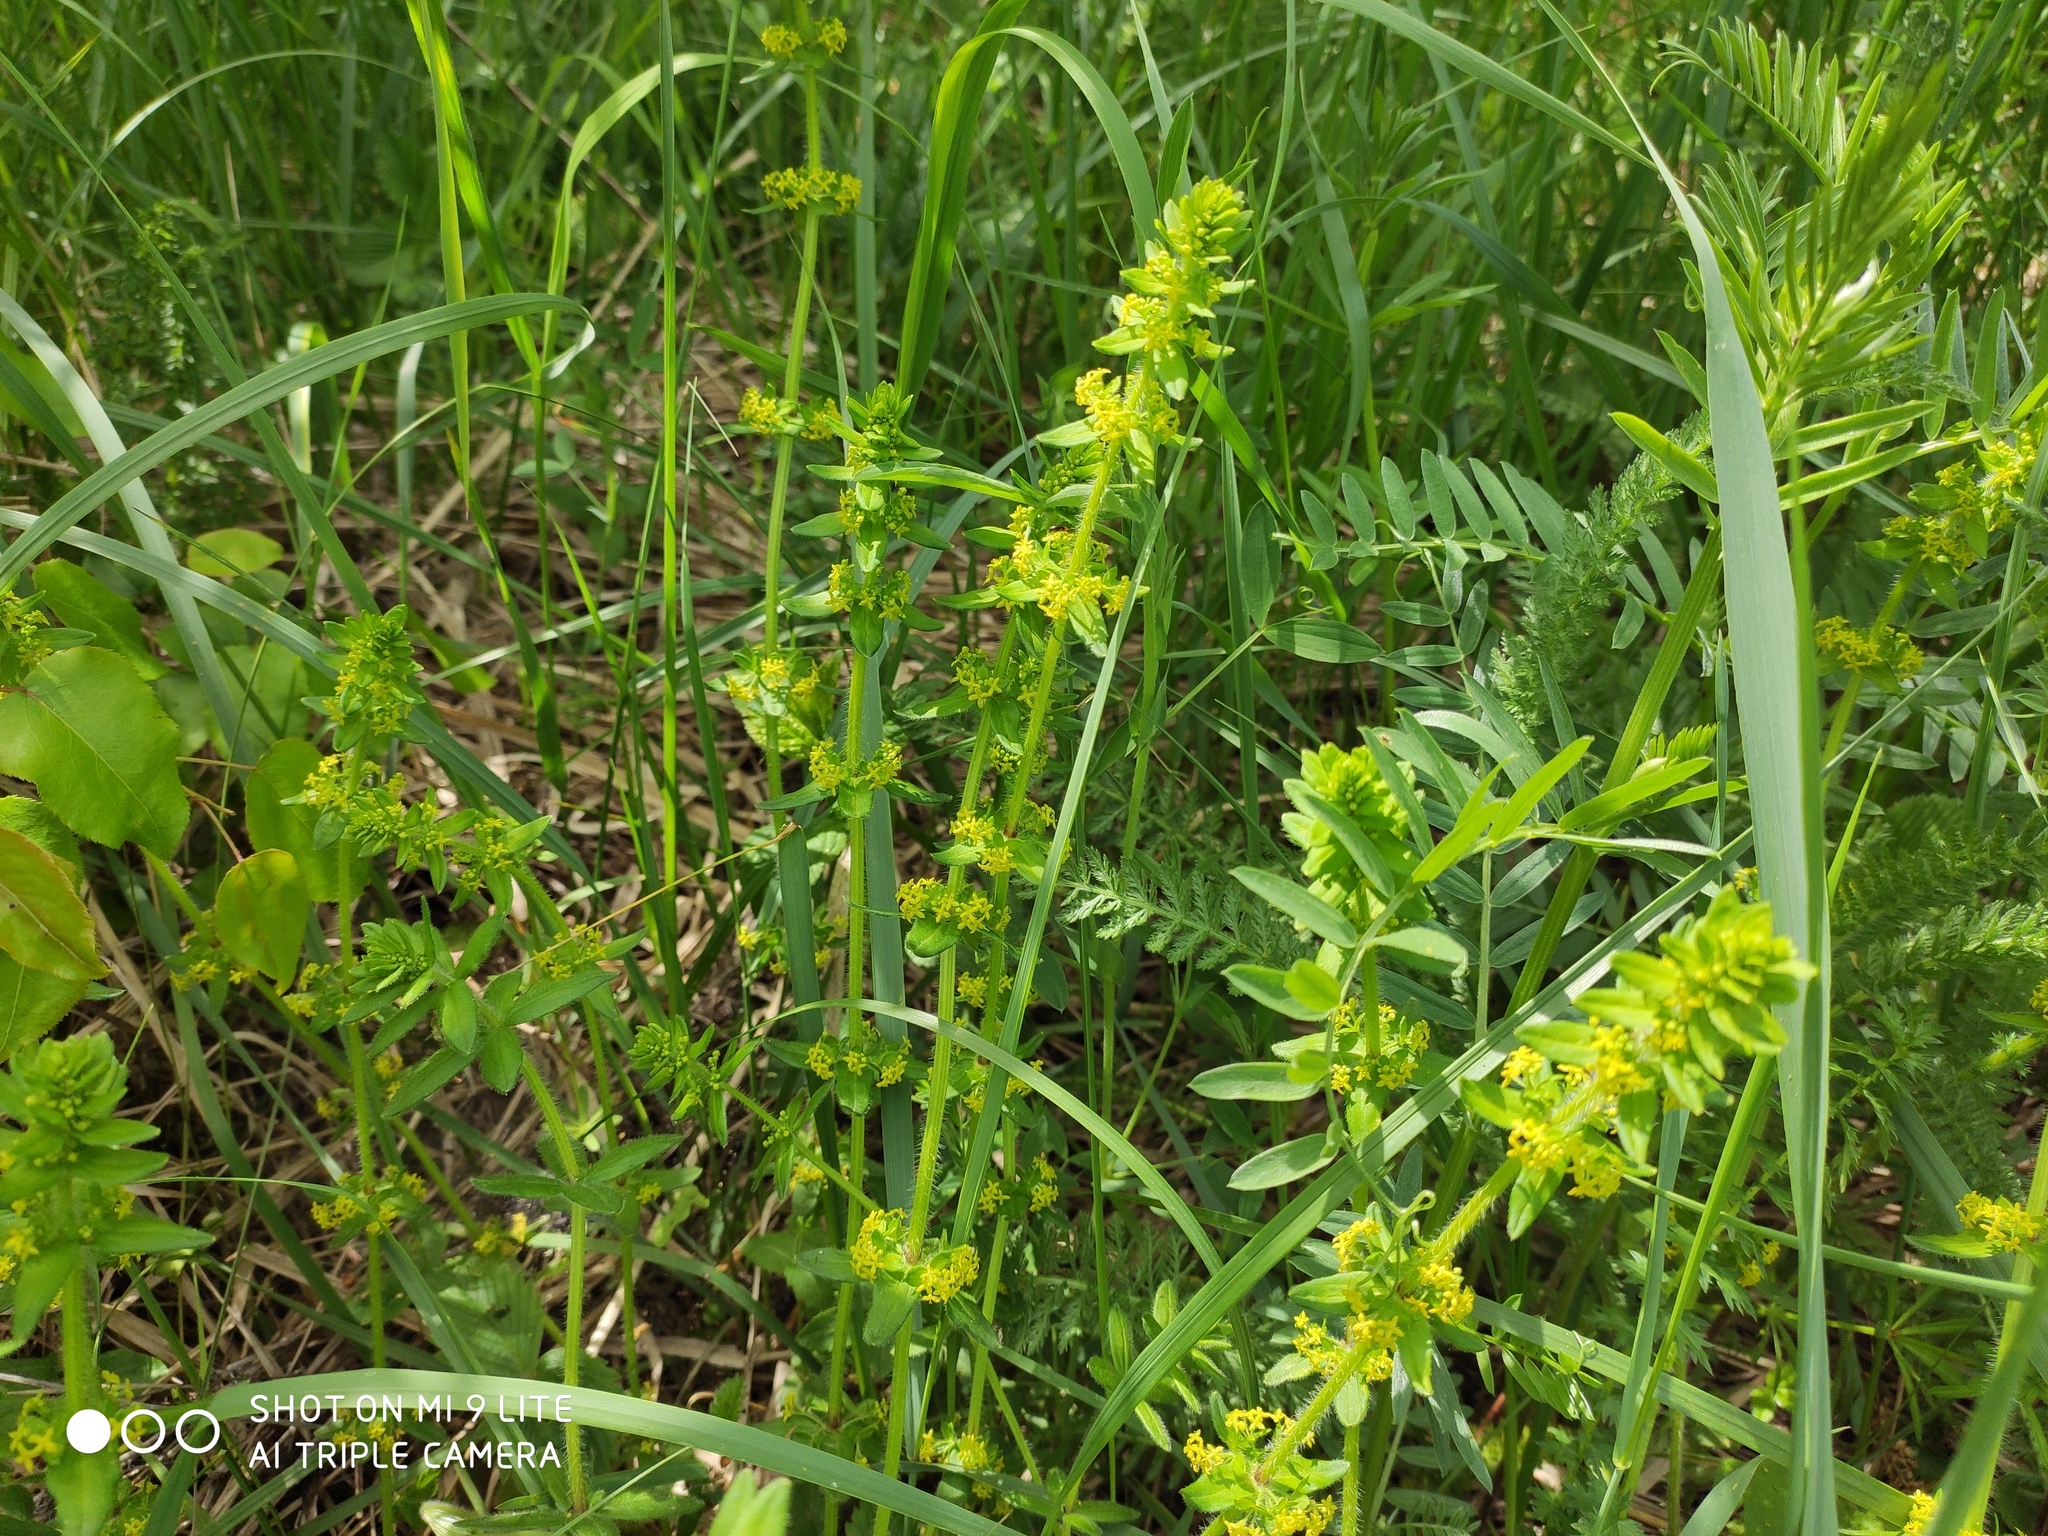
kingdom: Plantae
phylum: Tracheophyta
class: Magnoliopsida
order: Gentianales
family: Rubiaceae
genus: Cruciata
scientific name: Cruciata laevipes
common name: Crosswort
